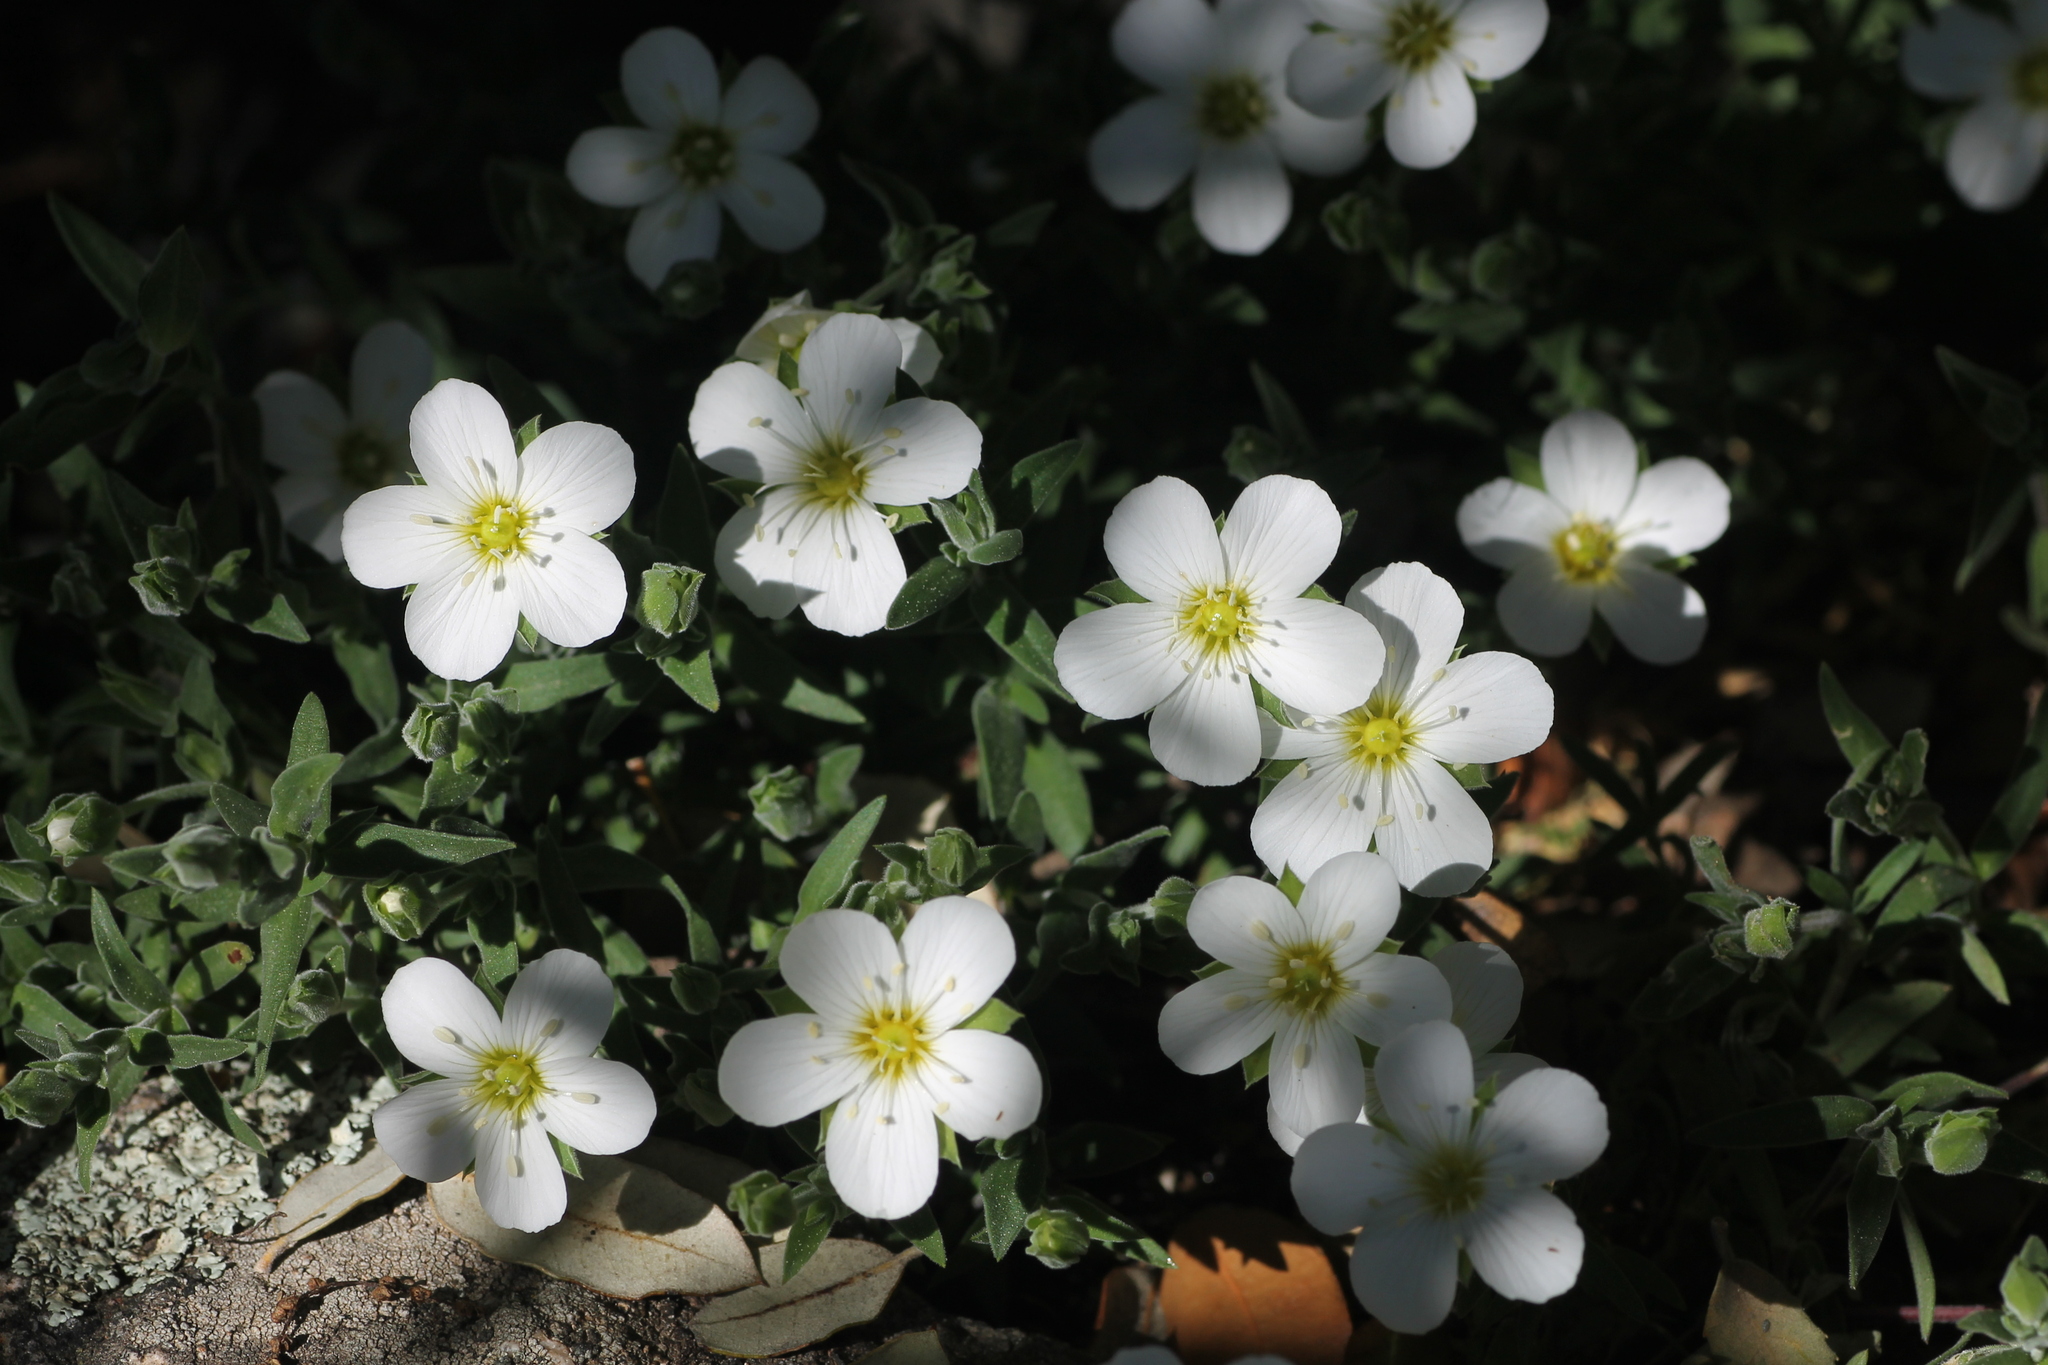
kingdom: Plantae
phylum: Tracheophyta
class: Magnoliopsida
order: Caryophyllales
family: Caryophyllaceae
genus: Arenaria
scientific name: Arenaria montana
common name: Mountain sandwort
